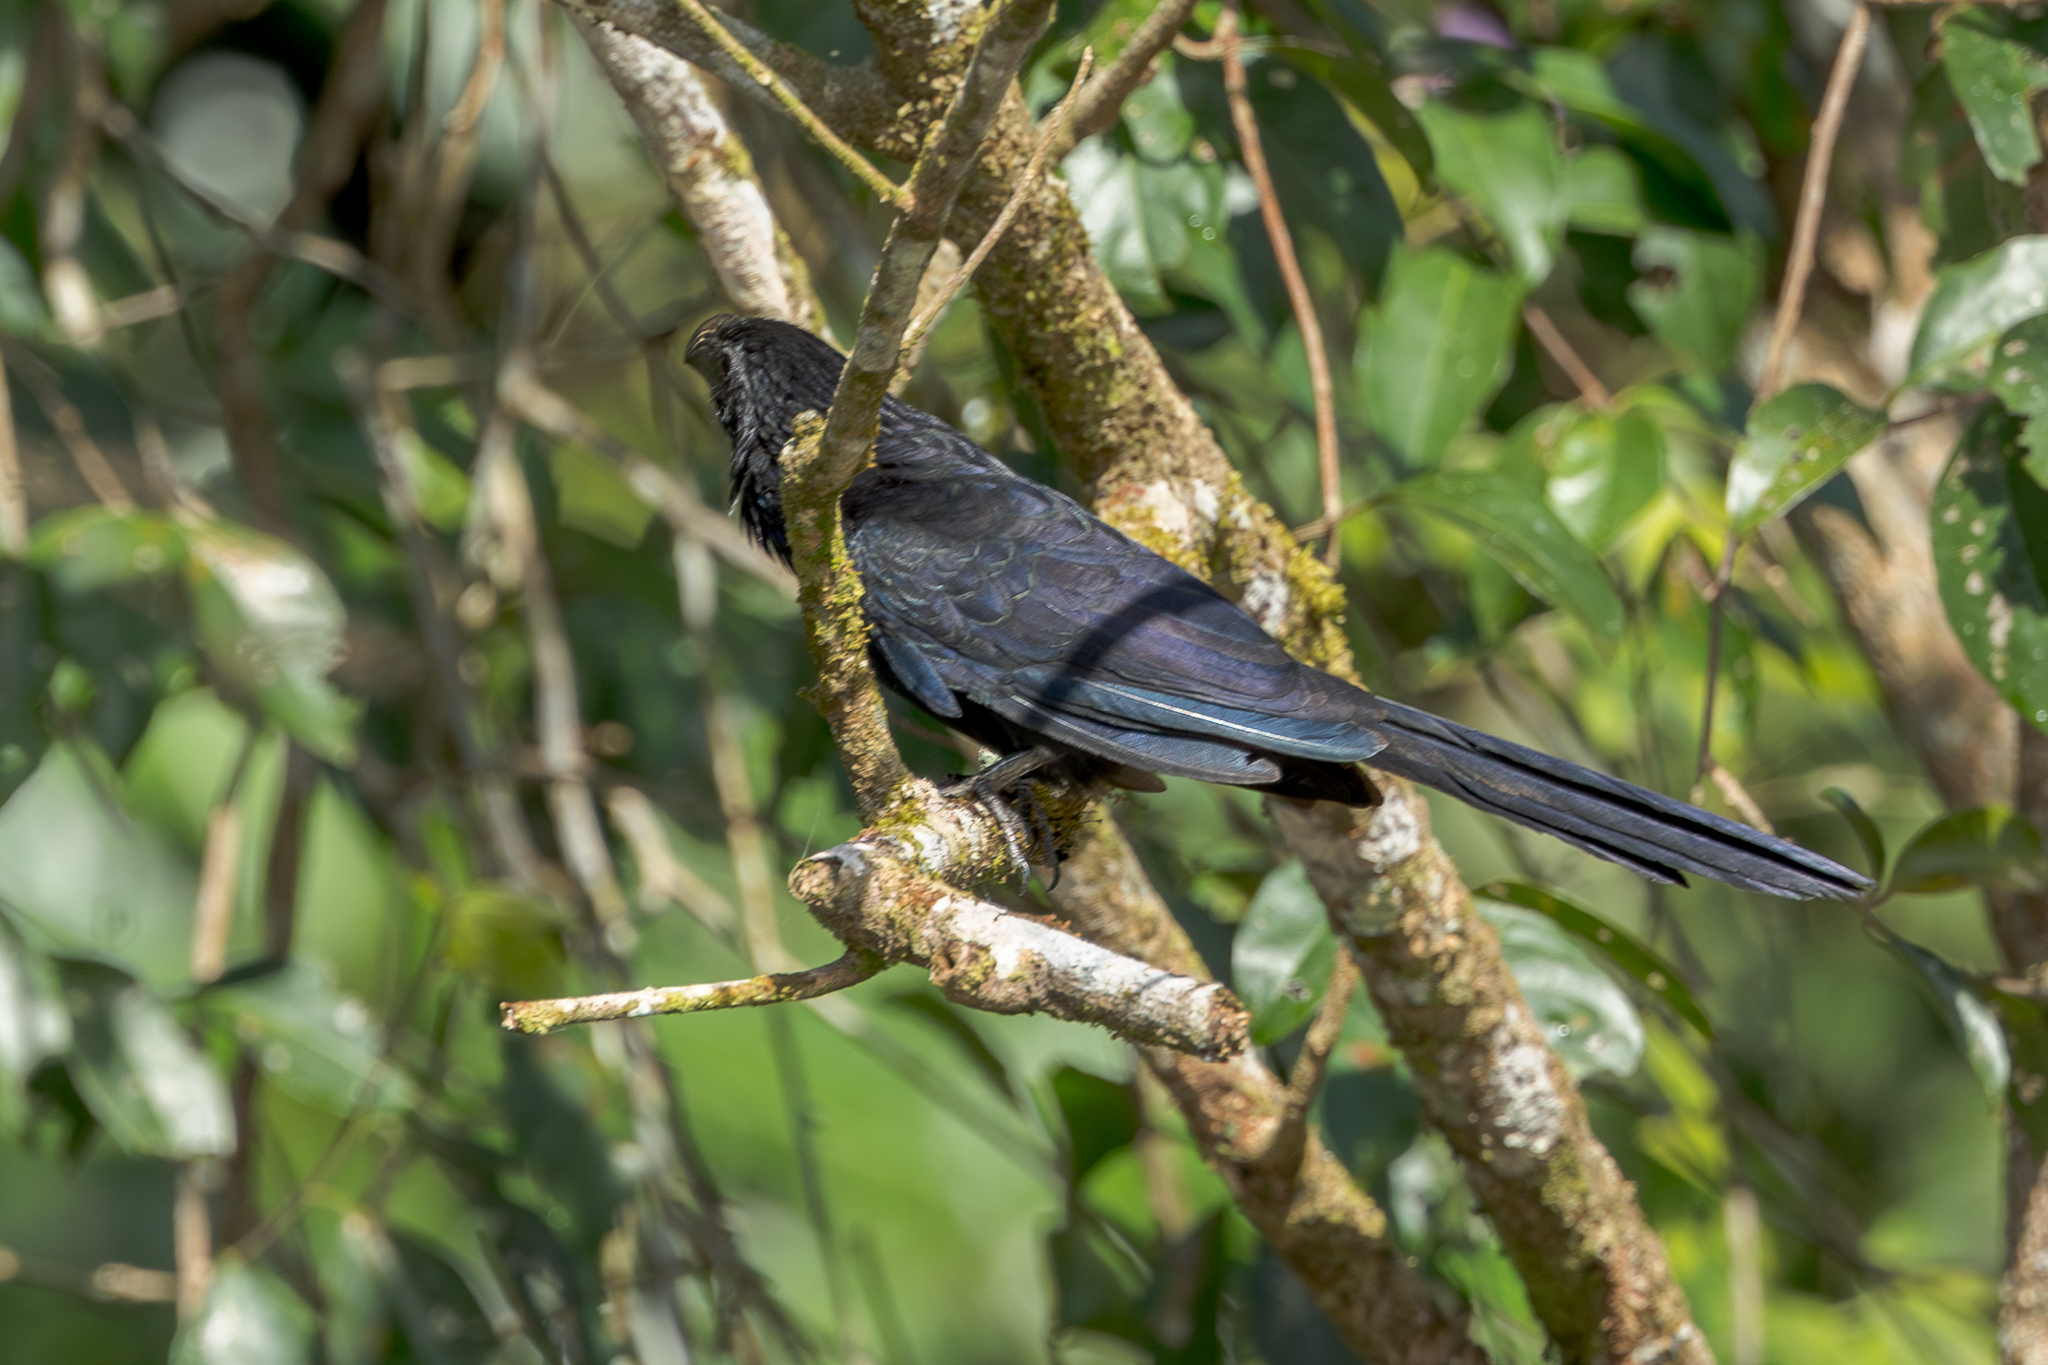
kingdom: Animalia
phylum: Chordata
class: Aves
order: Cuculiformes
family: Cuculidae
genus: Crotophaga
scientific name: Crotophaga sulcirostris
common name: Groove-billed ani
